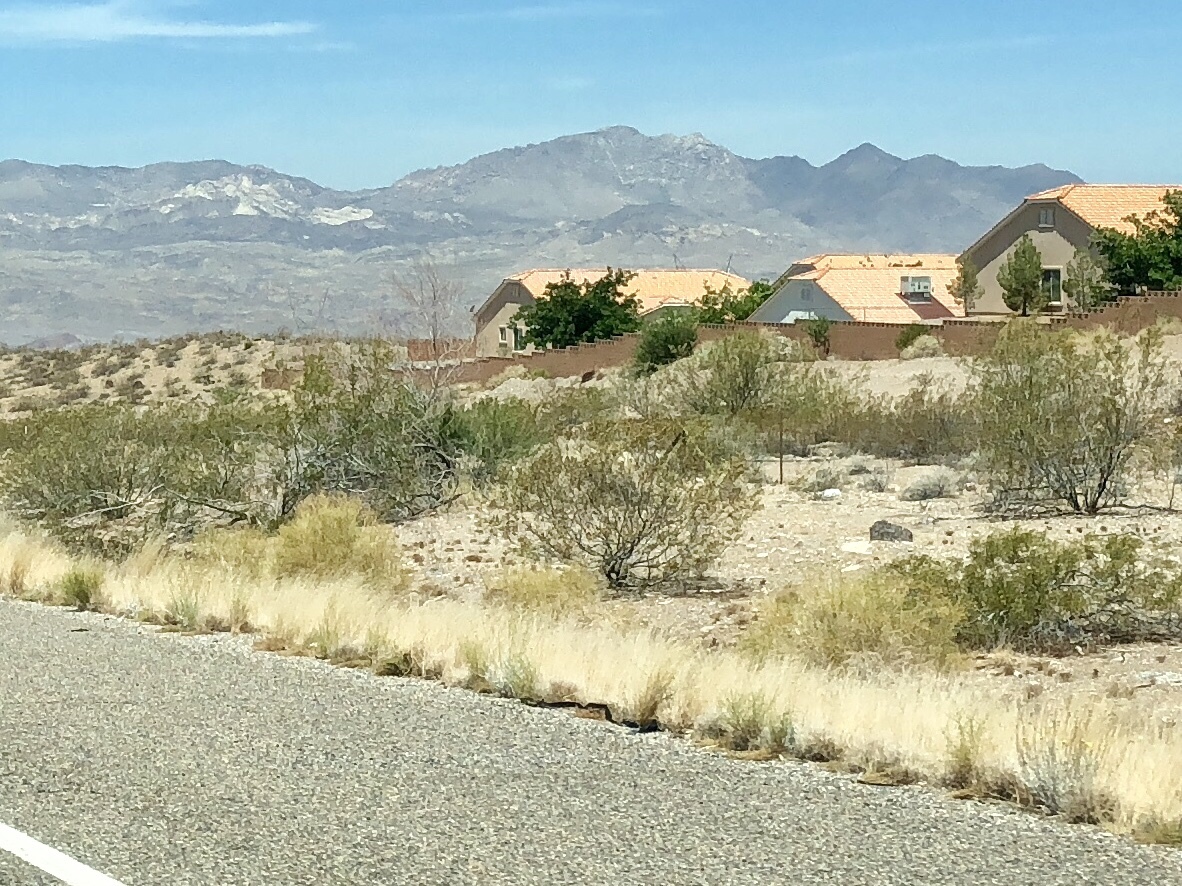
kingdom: Plantae
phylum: Tracheophyta
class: Magnoliopsida
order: Zygophyllales
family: Zygophyllaceae
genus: Larrea
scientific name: Larrea tridentata
